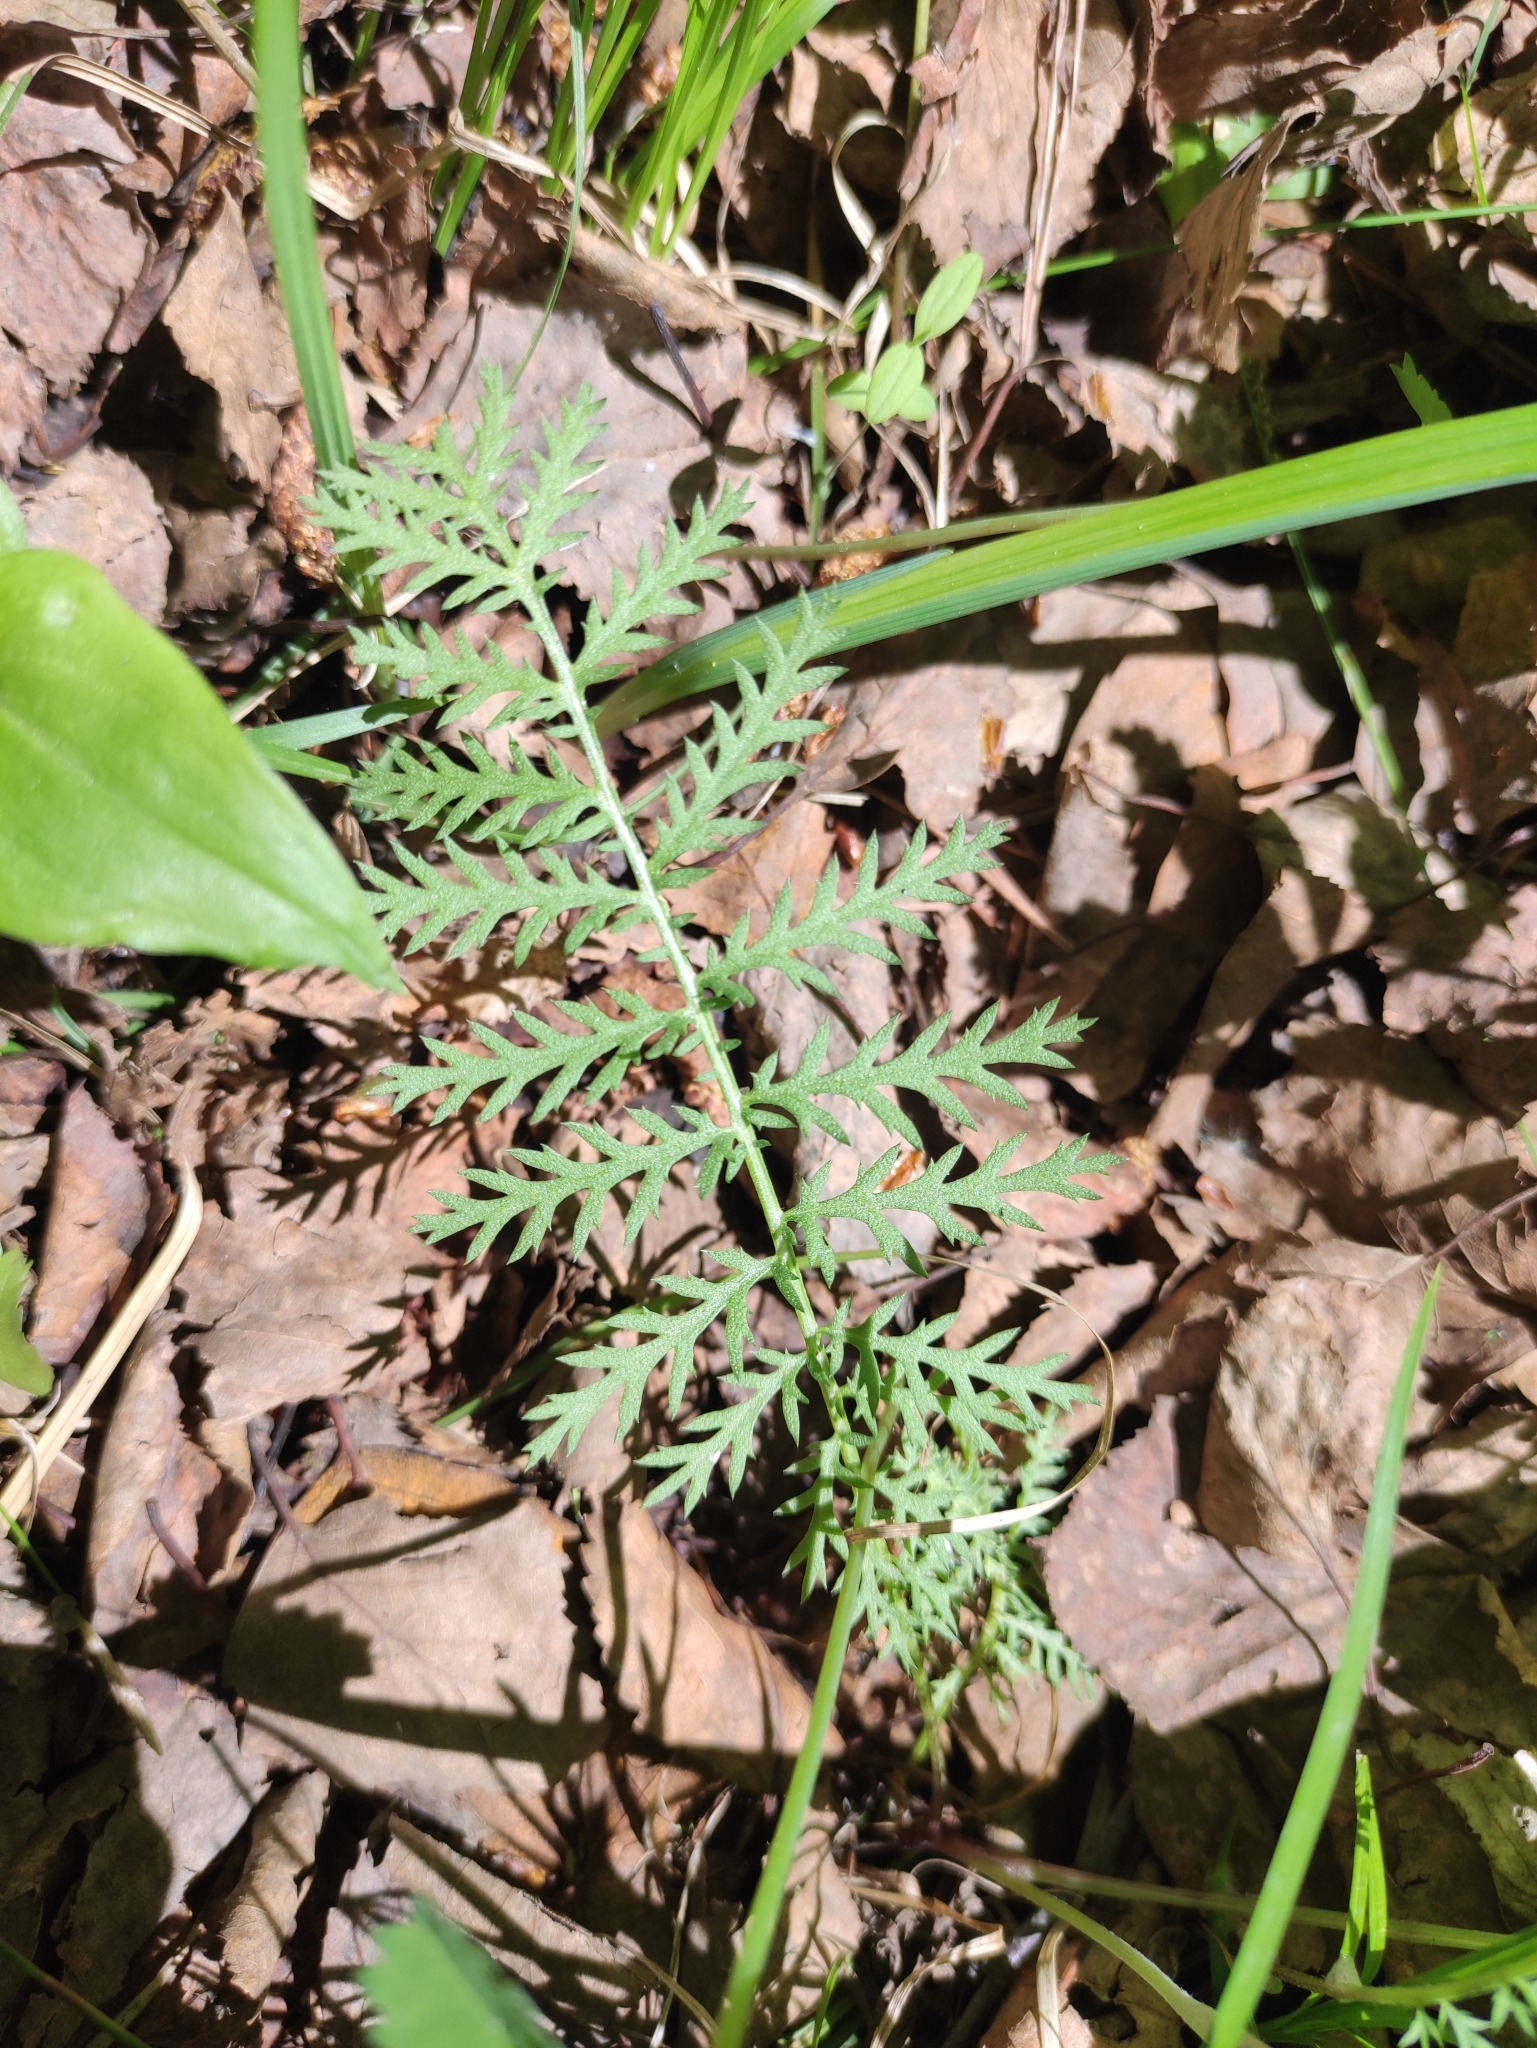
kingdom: Plantae
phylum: Tracheophyta
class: Magnoliopsida
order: Asterales
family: Asteraceae
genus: Artemisia
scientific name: Artemisia tanacetifolia
